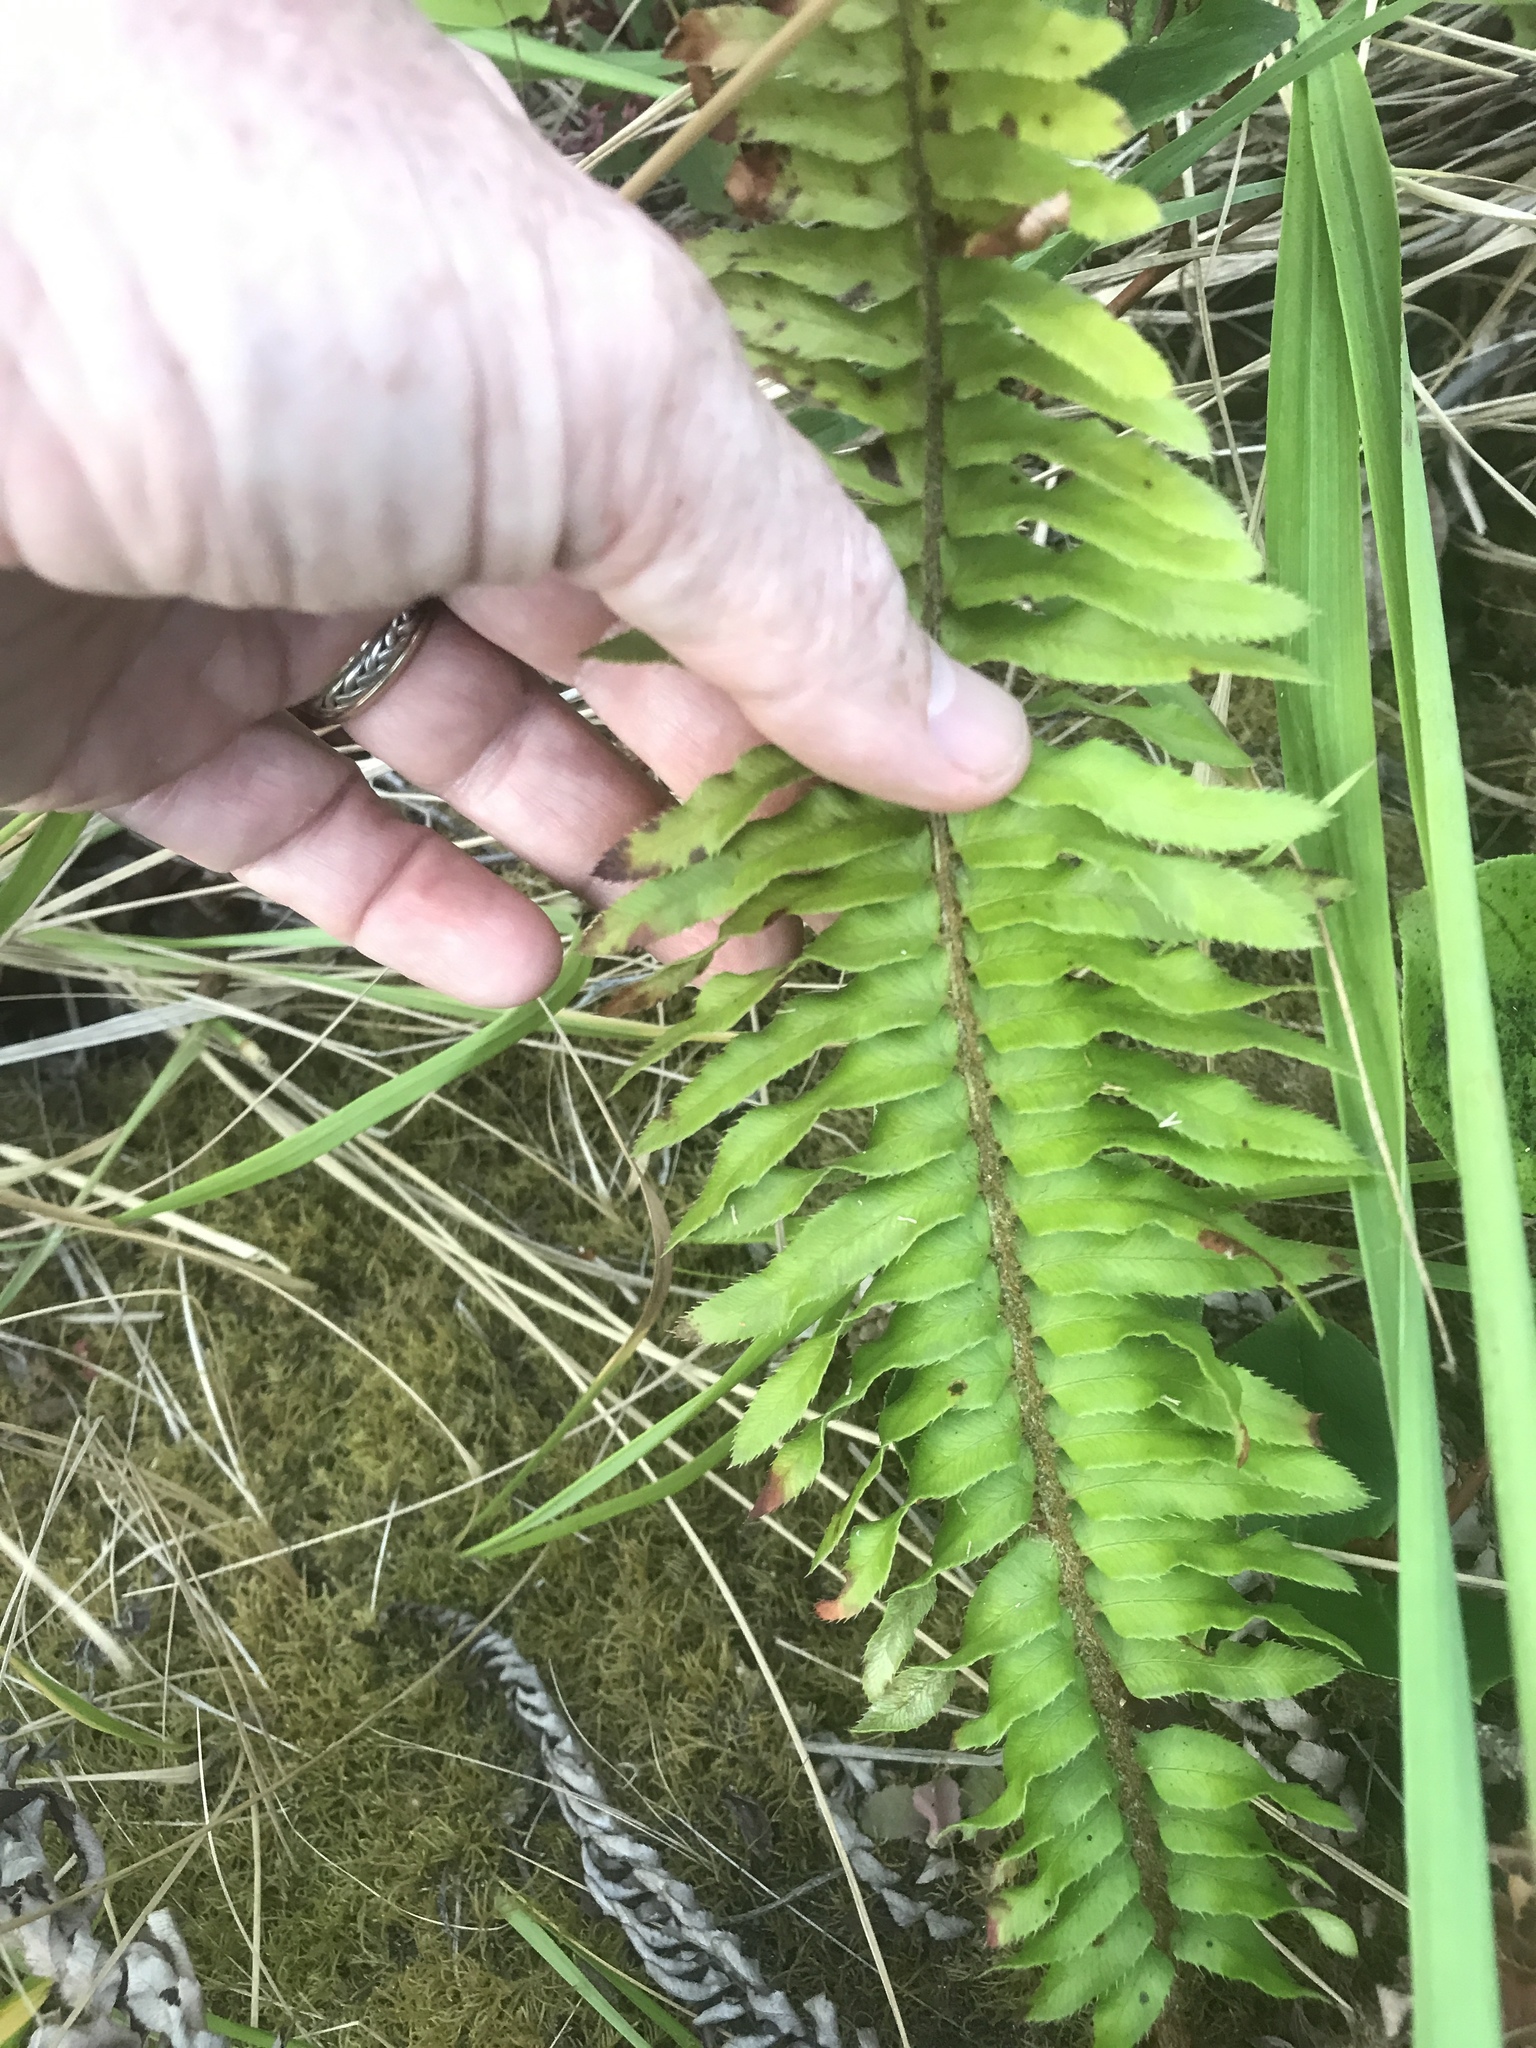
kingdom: Plantae
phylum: Tracheophyta
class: Polypodiopsida
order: Polypodiales
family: Dryopteridaceae
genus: Polystichum
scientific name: Polystichum munitum
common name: Western sword-fern
